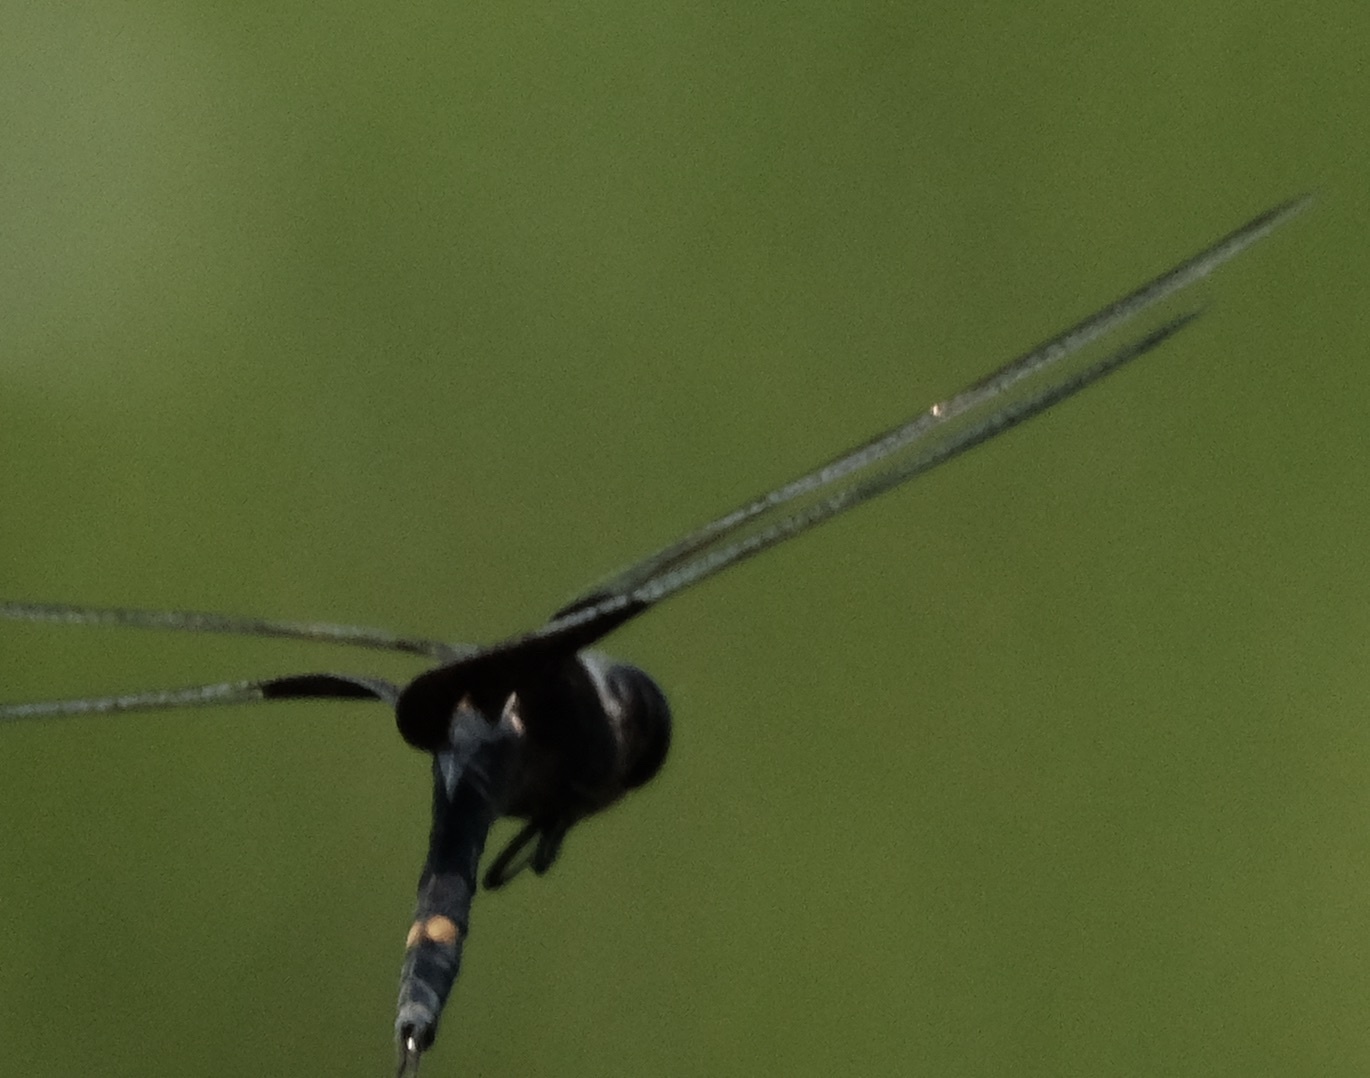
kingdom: Animalia
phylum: Arthropoda
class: Insecta
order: Odonata
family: Libellulidae
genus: Tramea
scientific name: Tramea lacerata
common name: Black saddlebags
